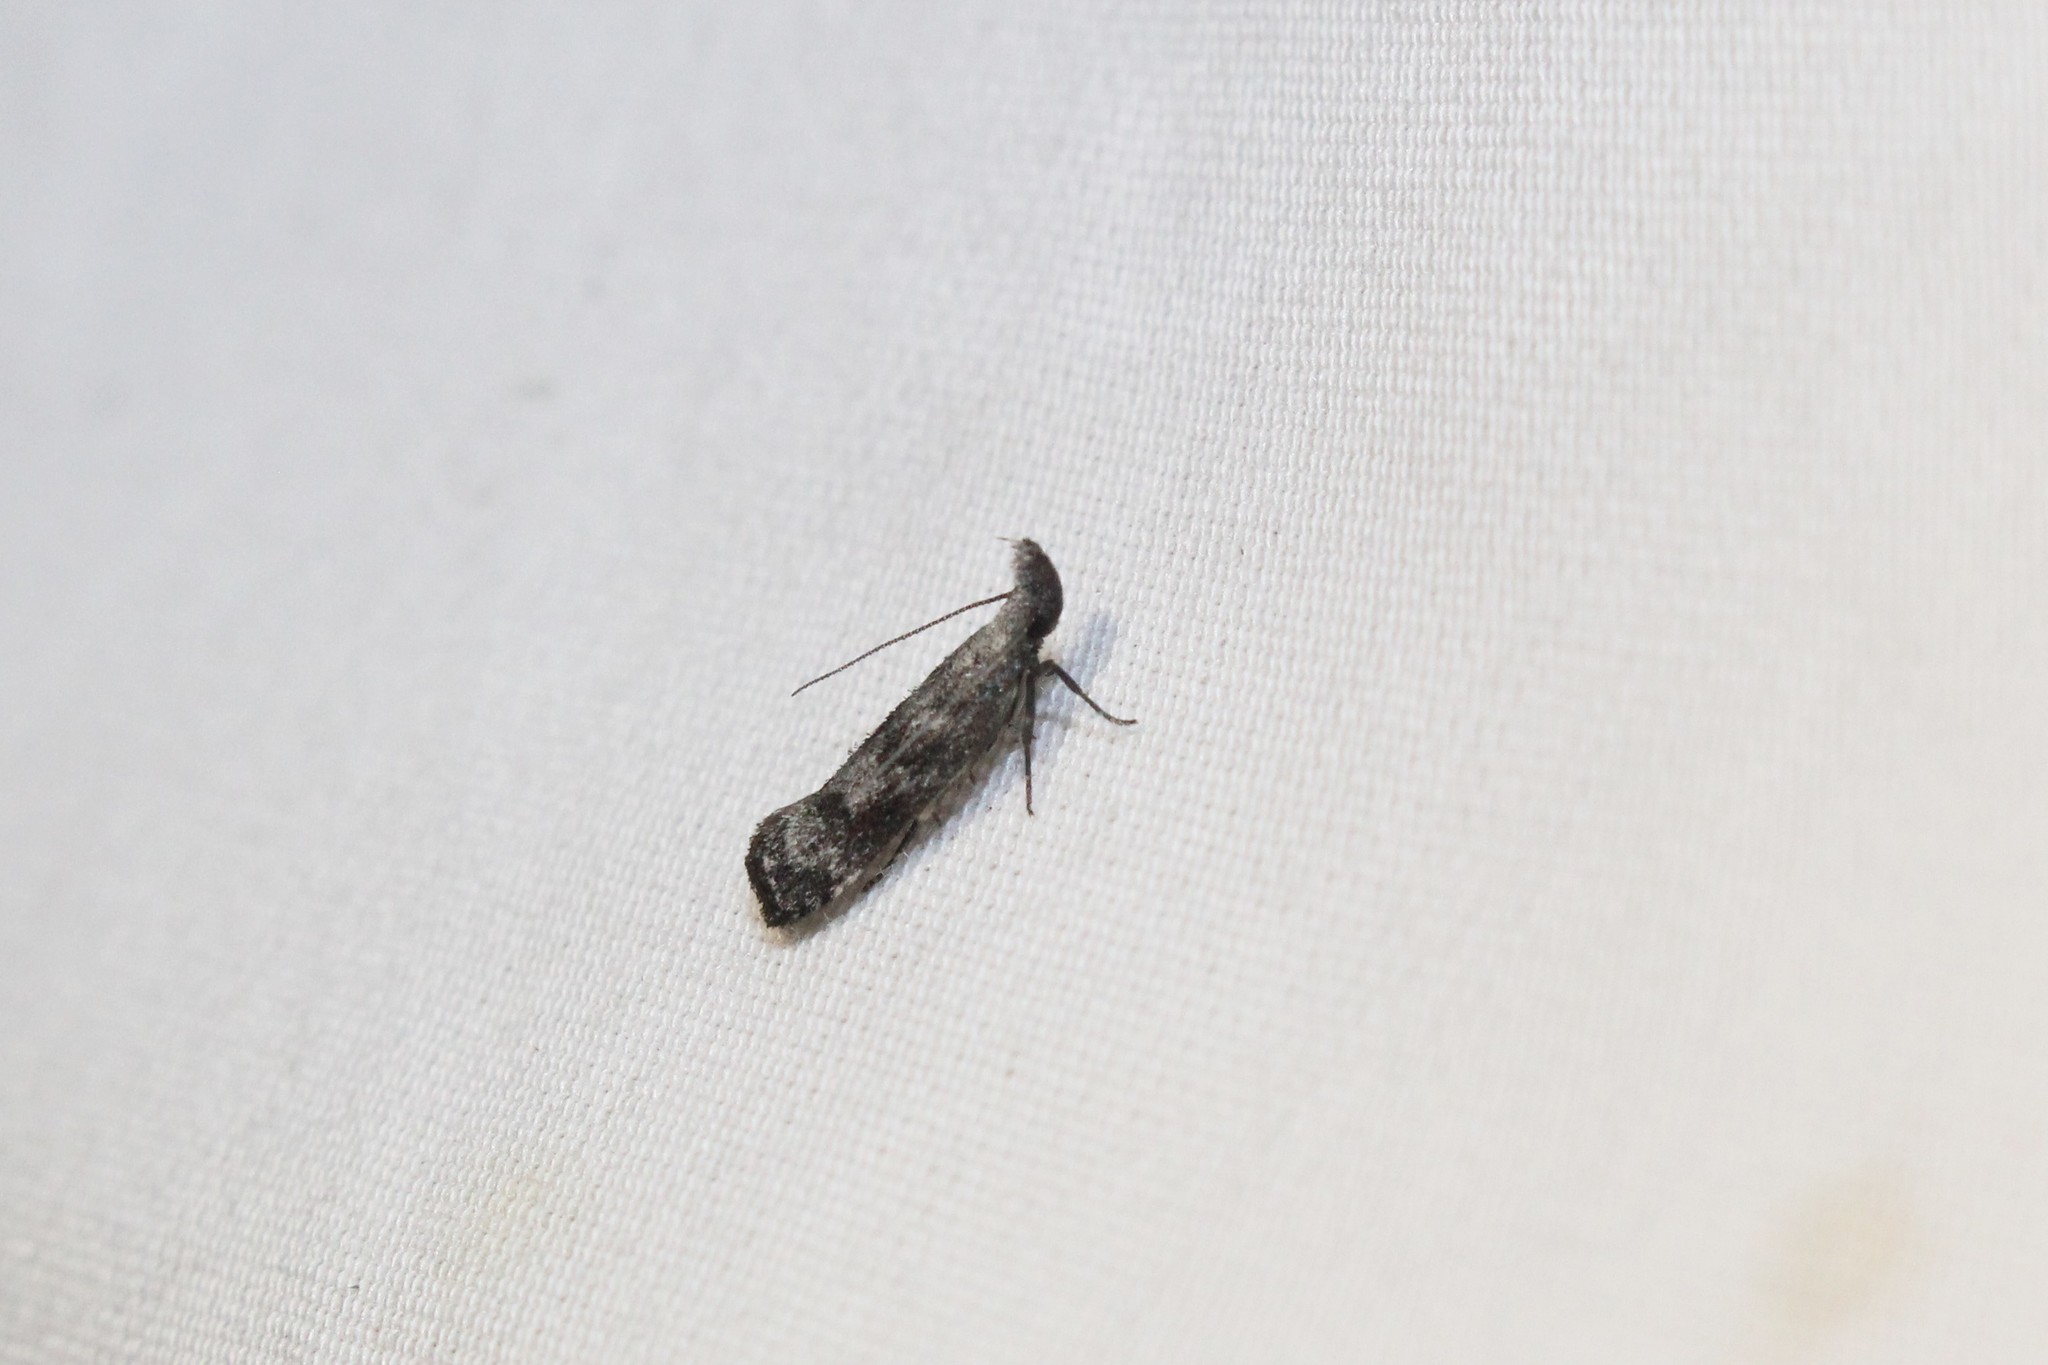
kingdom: Animalia
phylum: Arthropoda
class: Insecta
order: Lepidoptera
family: Gelechiidae
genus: Dichomeris
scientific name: Dichomeris inversella
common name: Inverse dichomeris moth
